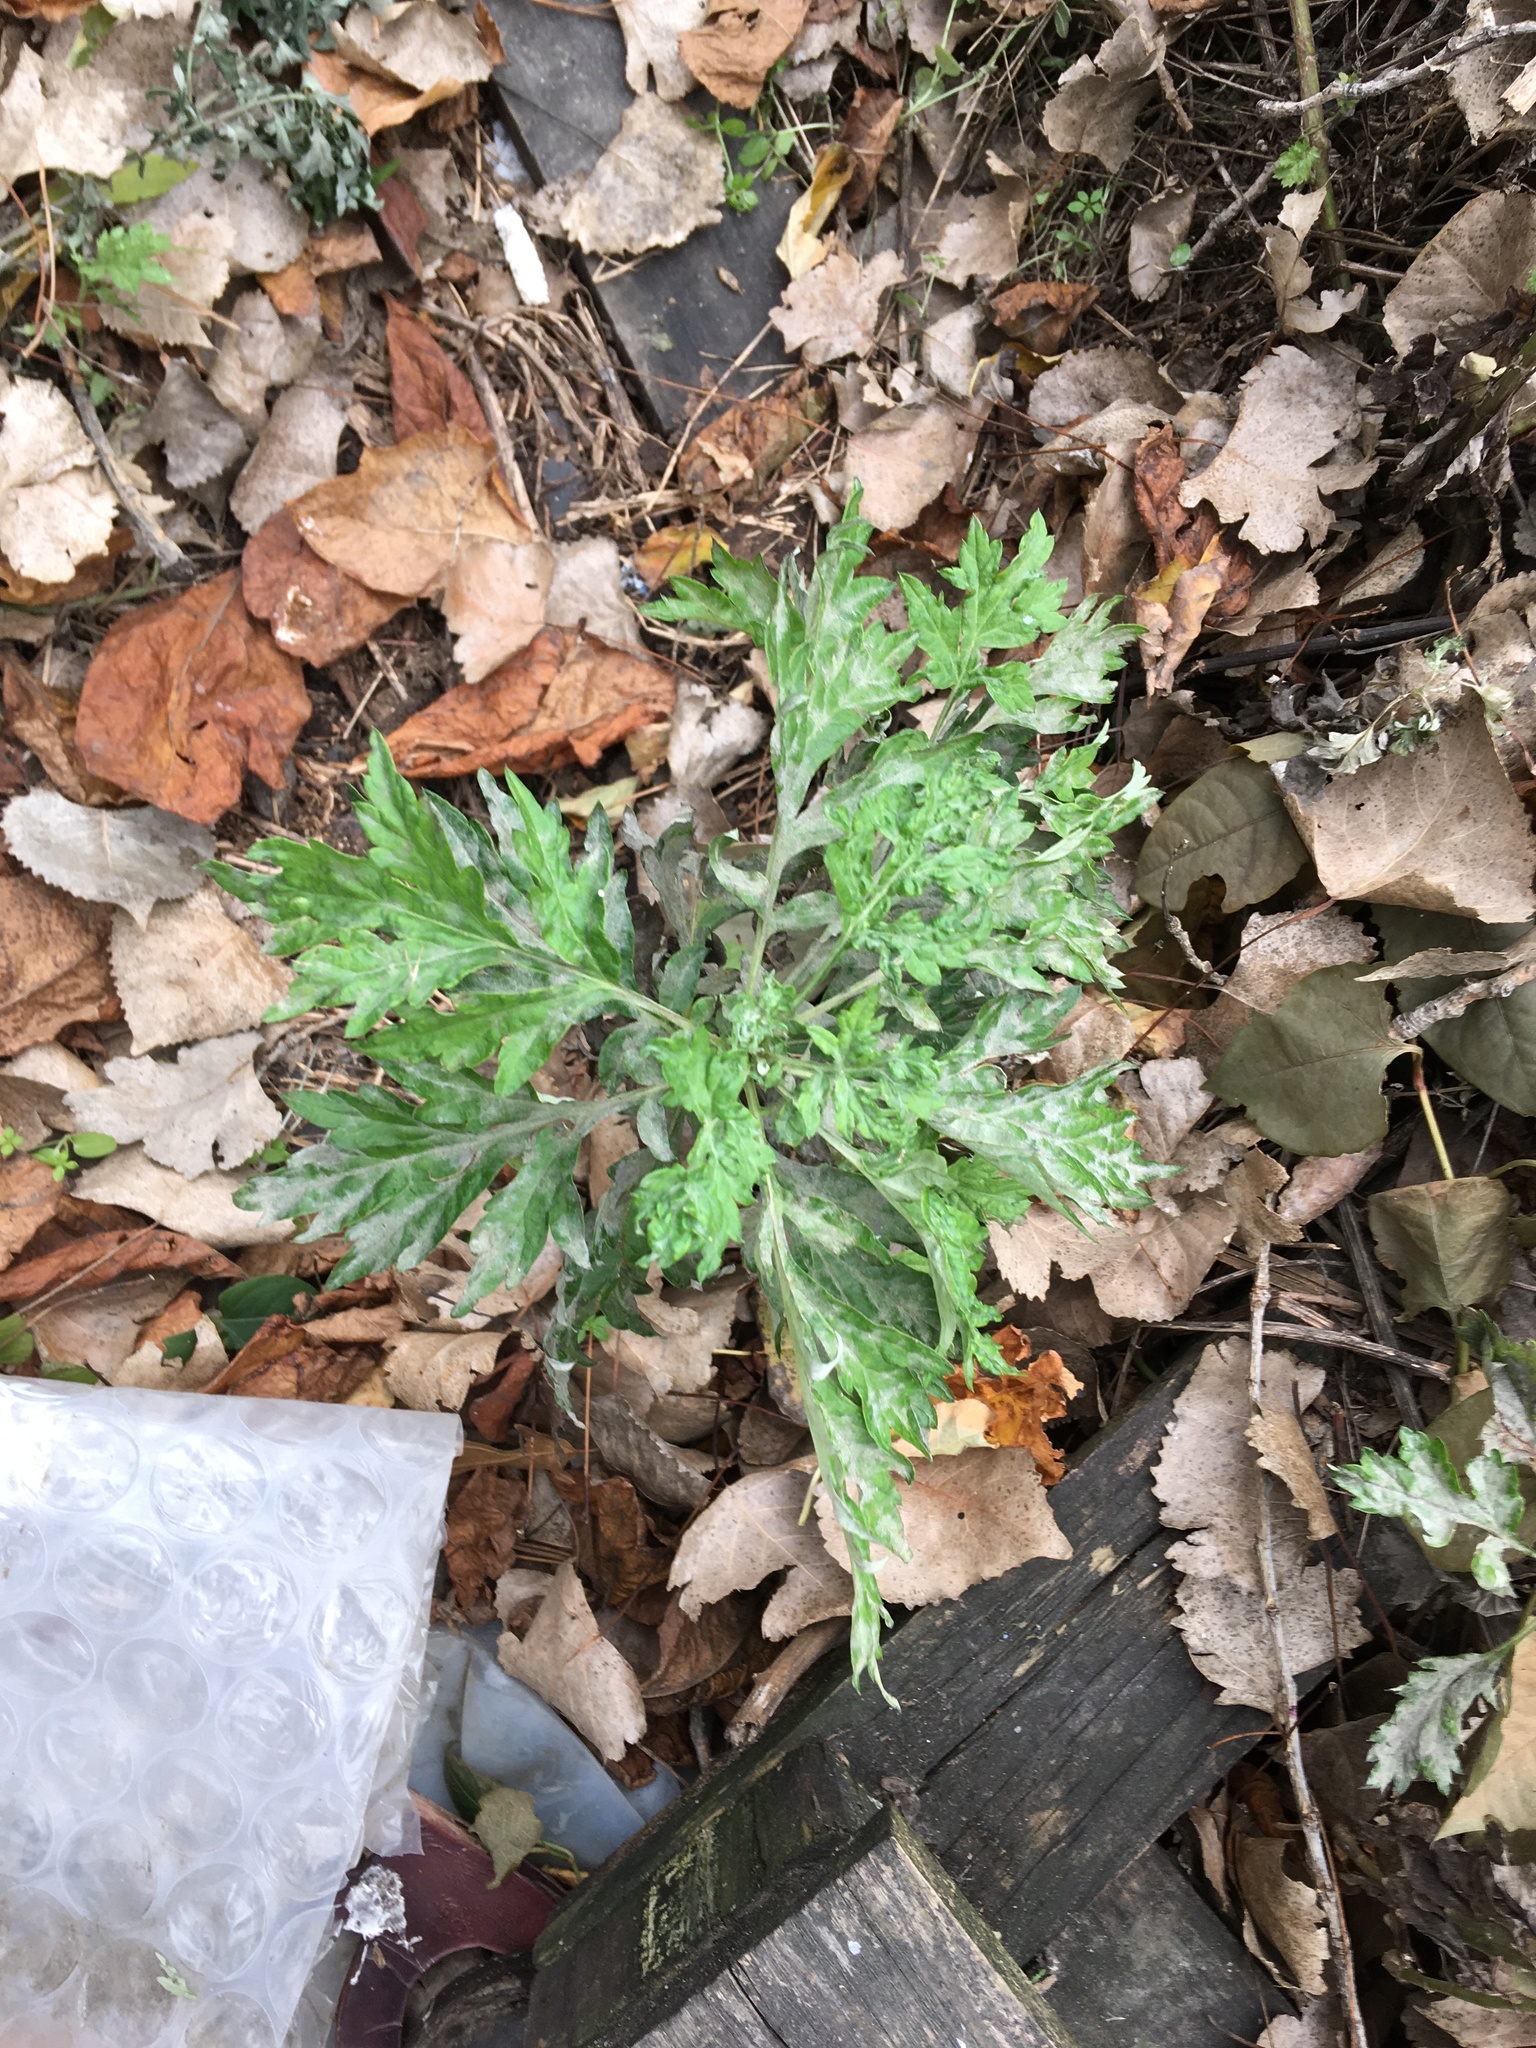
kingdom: Plantae
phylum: Tracheophyta
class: Magnoliopsida
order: Asterales
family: Asteraceae
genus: Artemisia
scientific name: Artemisia vulgaris
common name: Mugwort
